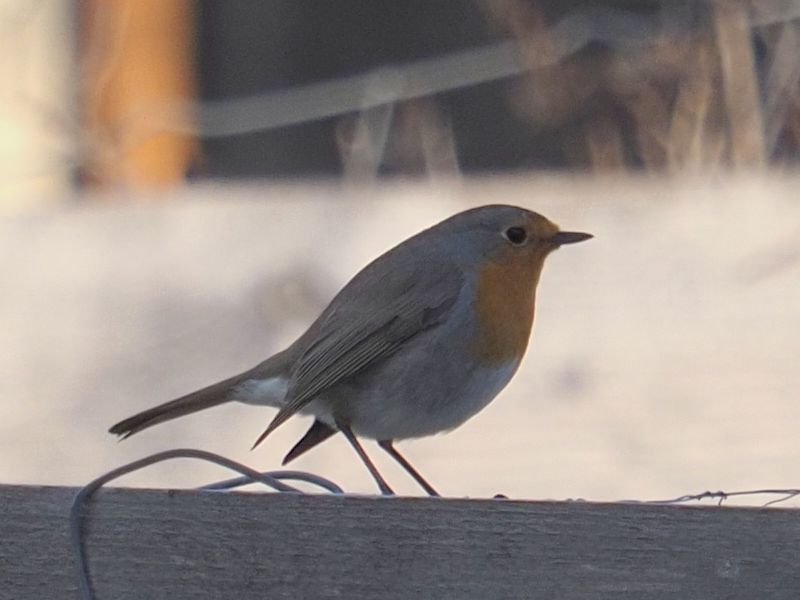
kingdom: Animalia
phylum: Chordata
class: Aves
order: Passeriformes
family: Muscicapidae
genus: Erithacus
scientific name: Erithacus rubecula
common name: European robin
